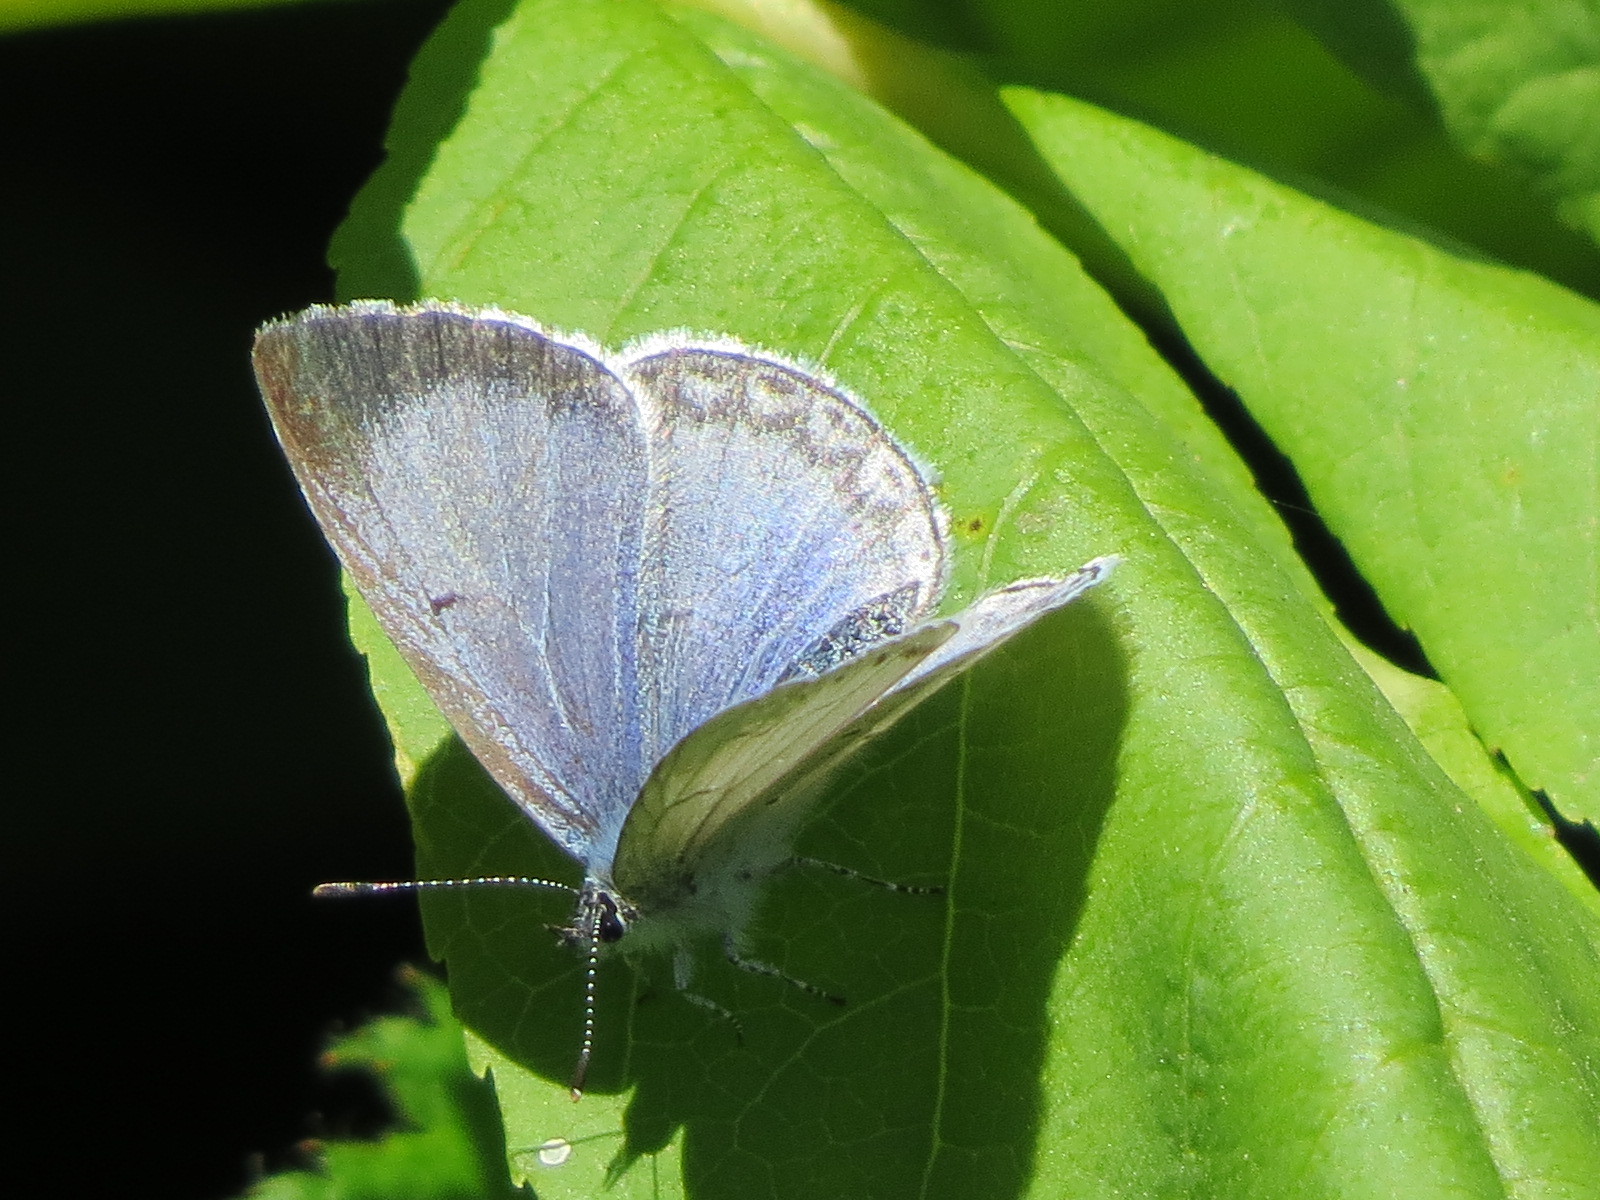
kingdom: Animalia
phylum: Arthropoda
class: Insecta
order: Lepidoptera
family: Lycaenidae
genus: Celastrina
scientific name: Celastrina ladon
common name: Spring azure
